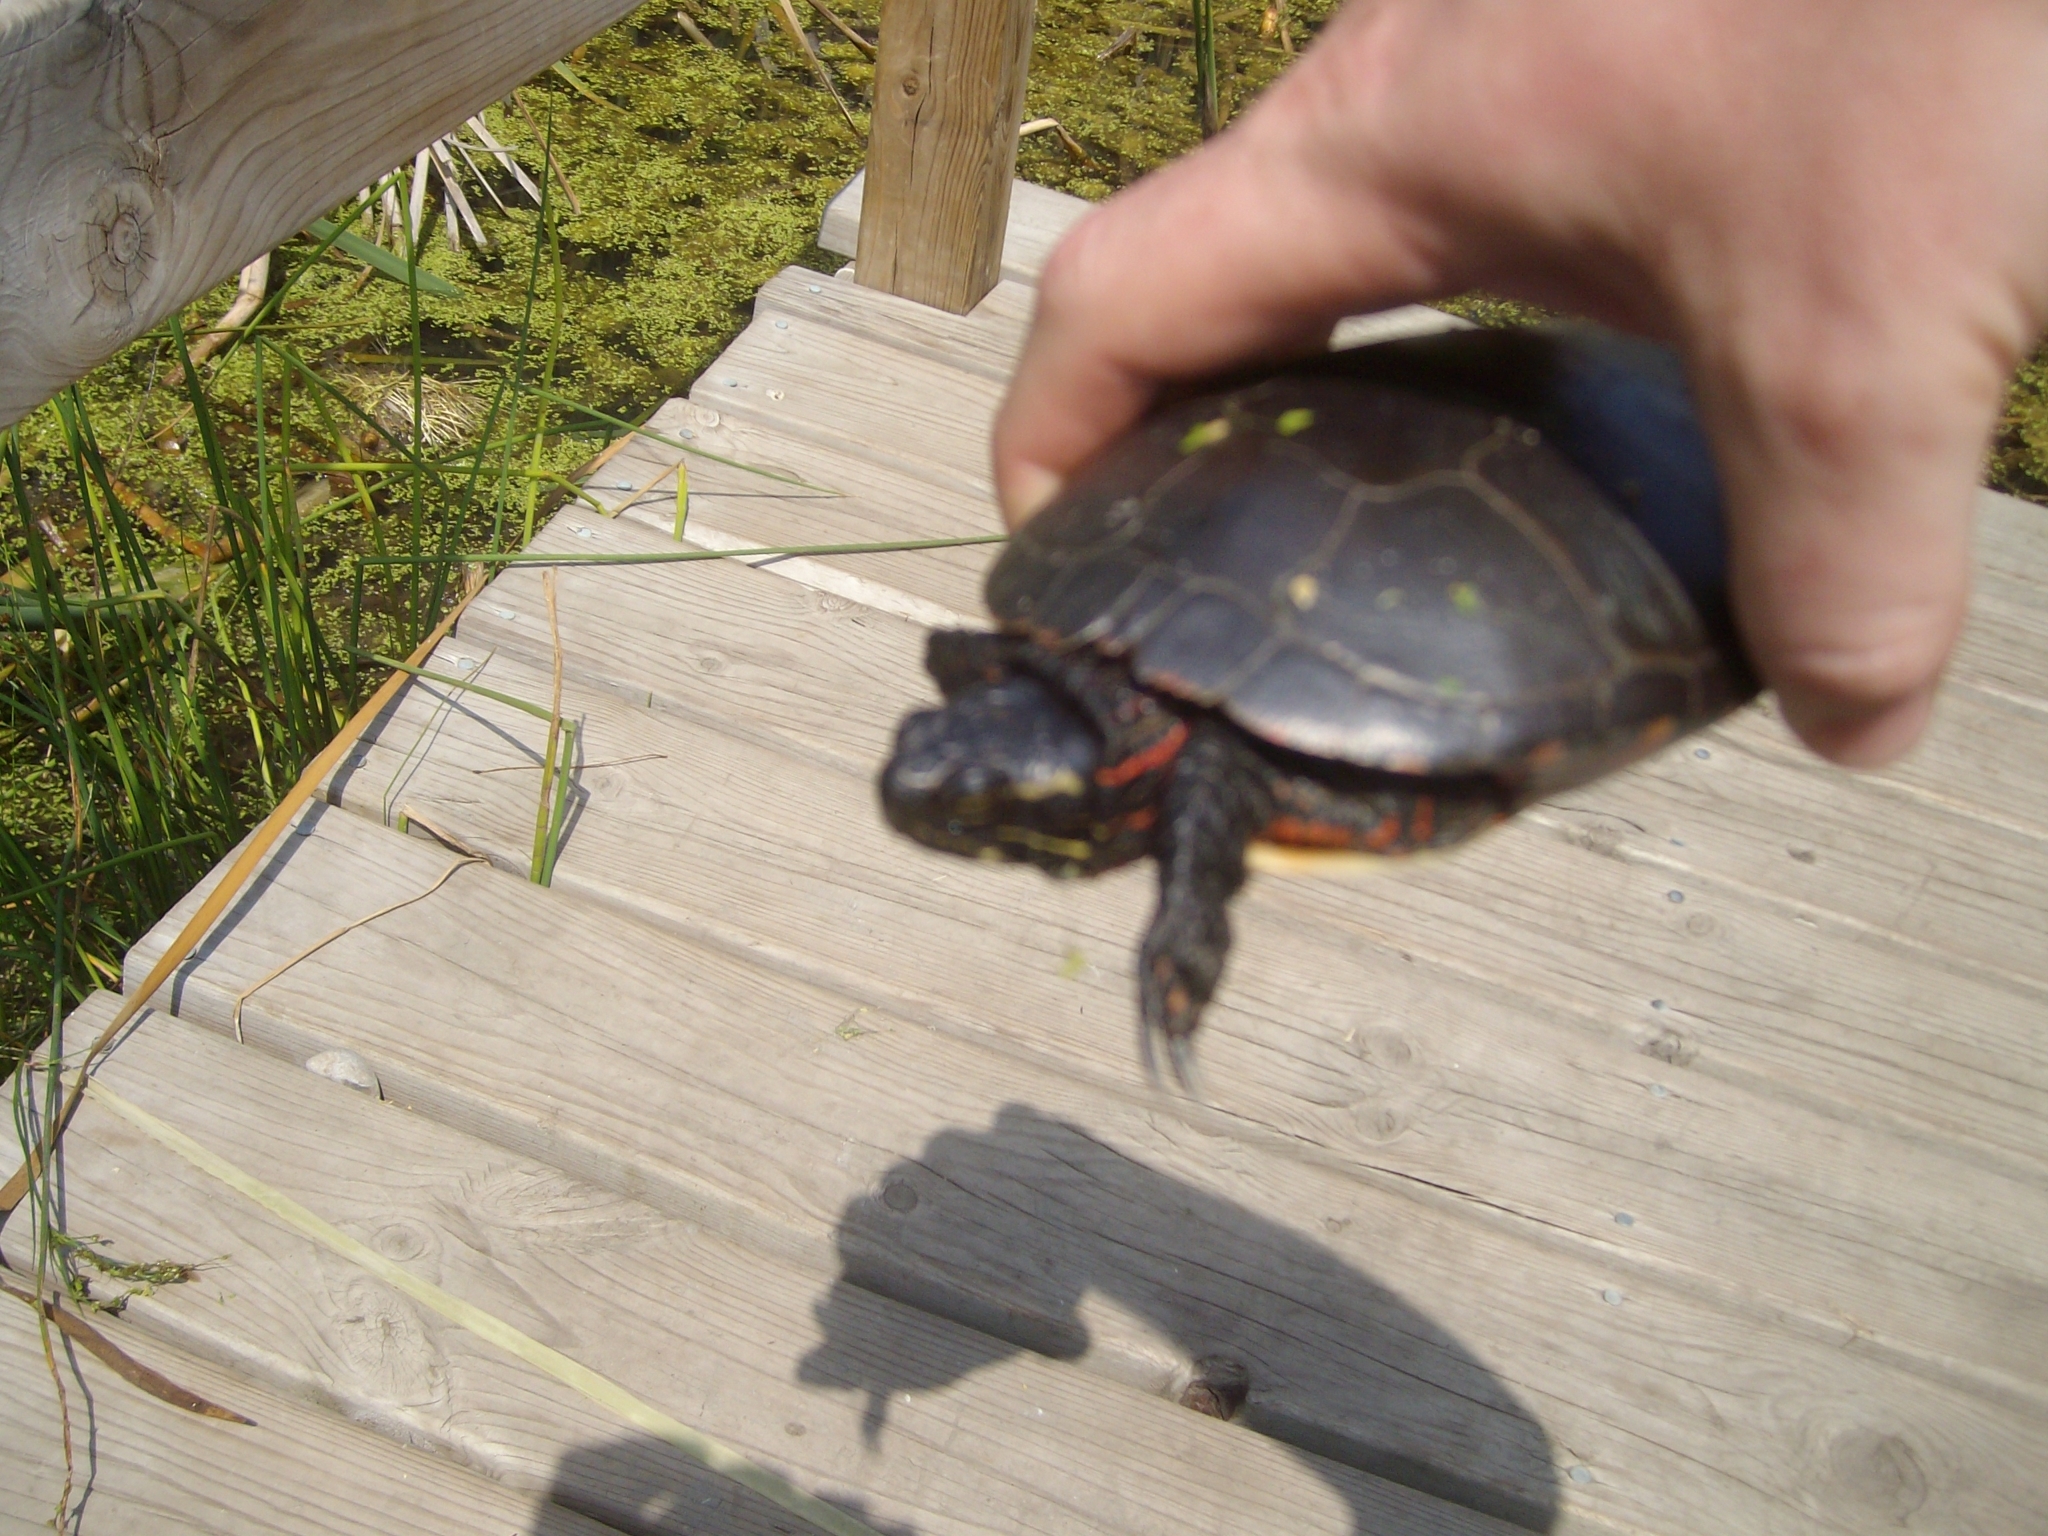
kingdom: Animalia
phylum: Chordata
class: Testudines
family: Emydidae
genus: Chrysemys
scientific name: Chrysemys picta
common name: Painted turtle
